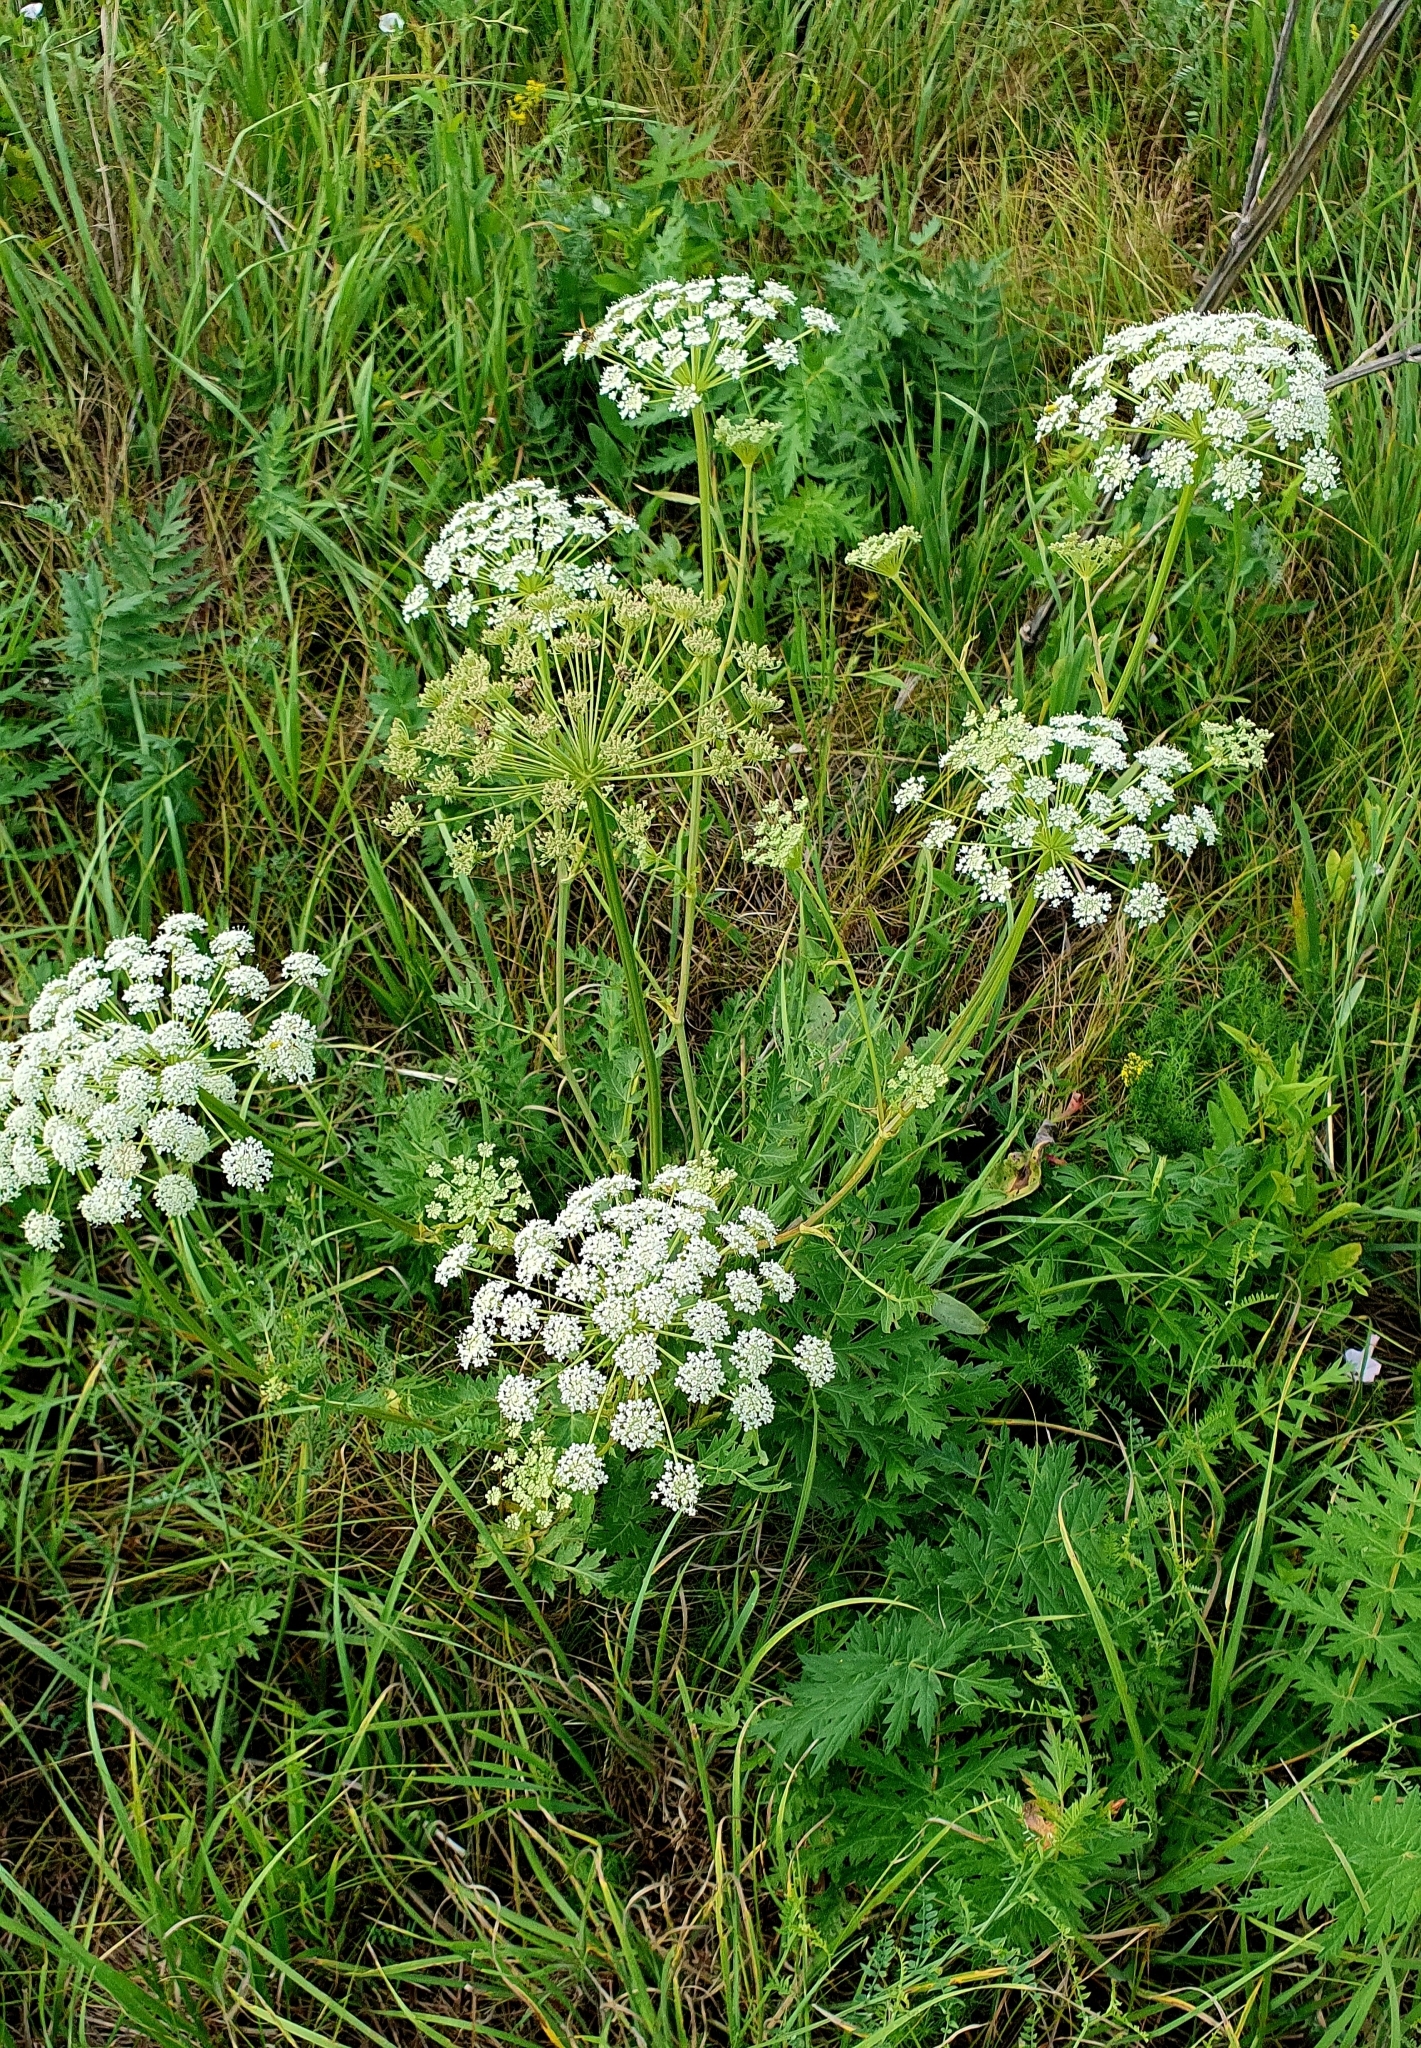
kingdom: Plantae
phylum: Tracheophyta
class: Magnoliopsida
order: Apiales
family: Apiaceae
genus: Seseli
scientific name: Seseli libanotis
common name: Mooncarrot
